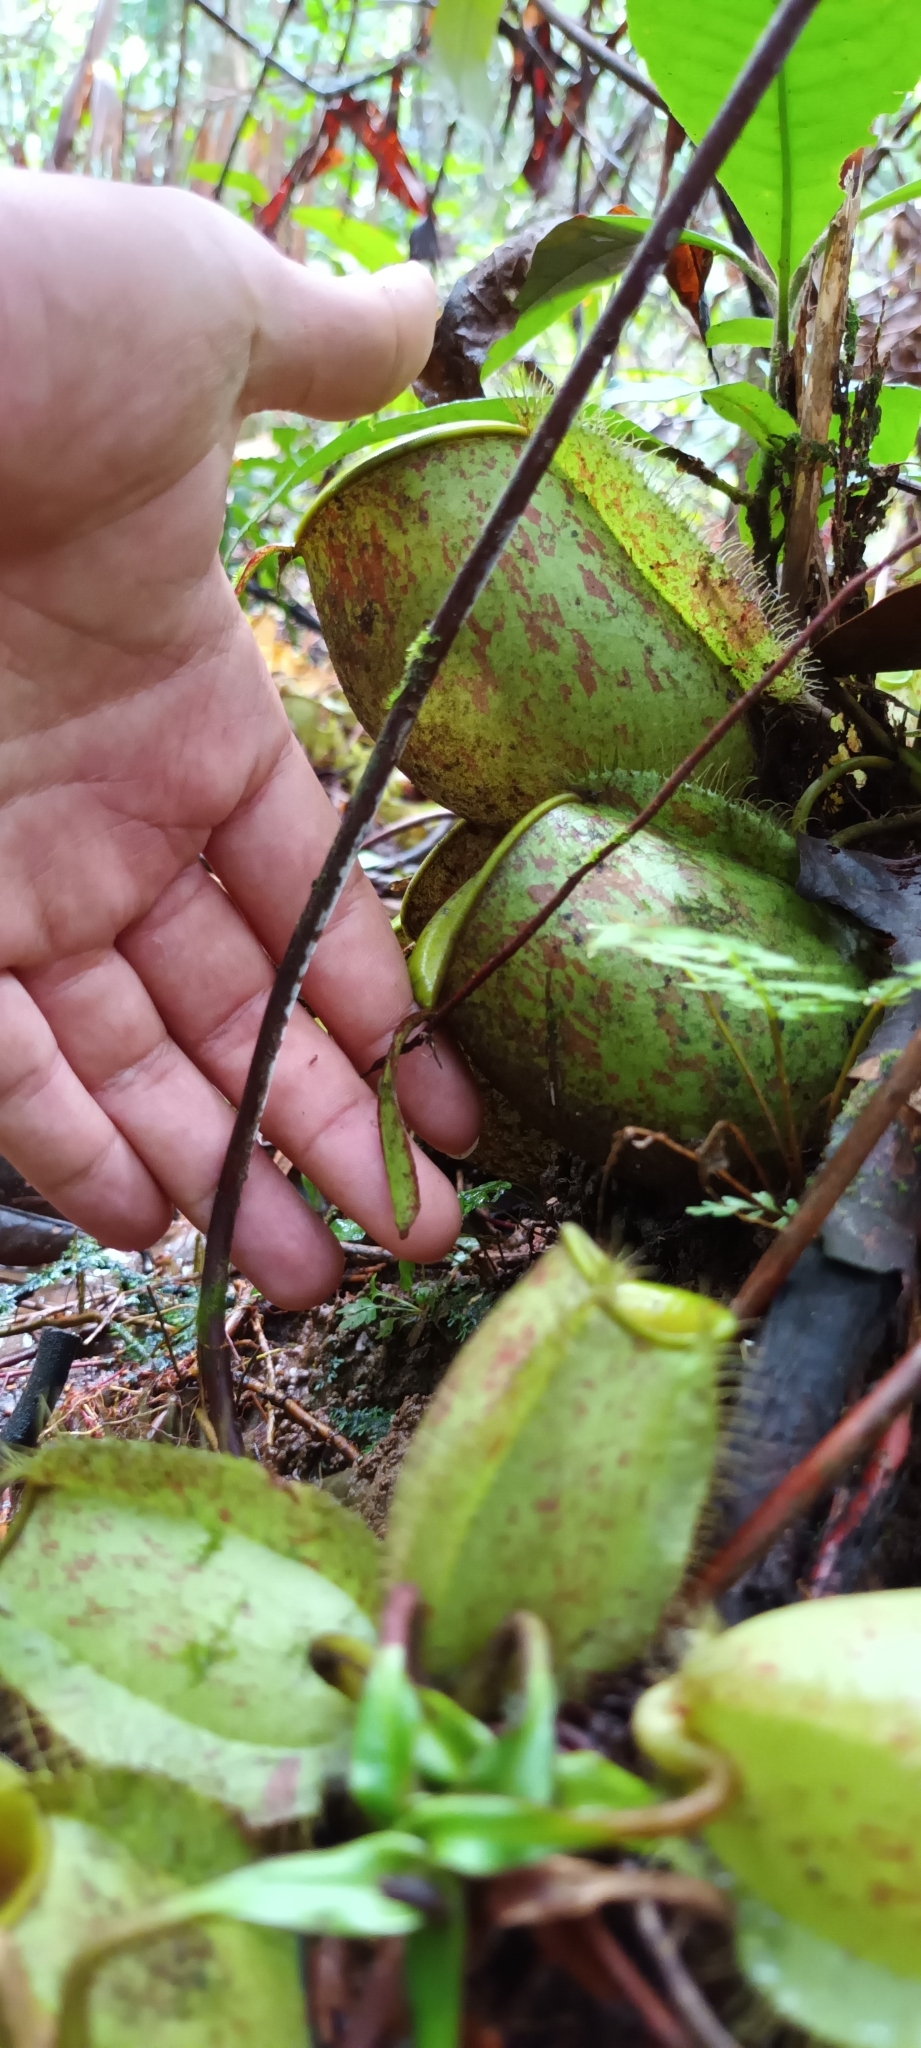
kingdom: Plantae
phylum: Tracheophyta
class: Magnoliopsida
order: Caryophyllales
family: Nepenthaceae
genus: Nepenthes
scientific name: Nepenthes ampullaria
